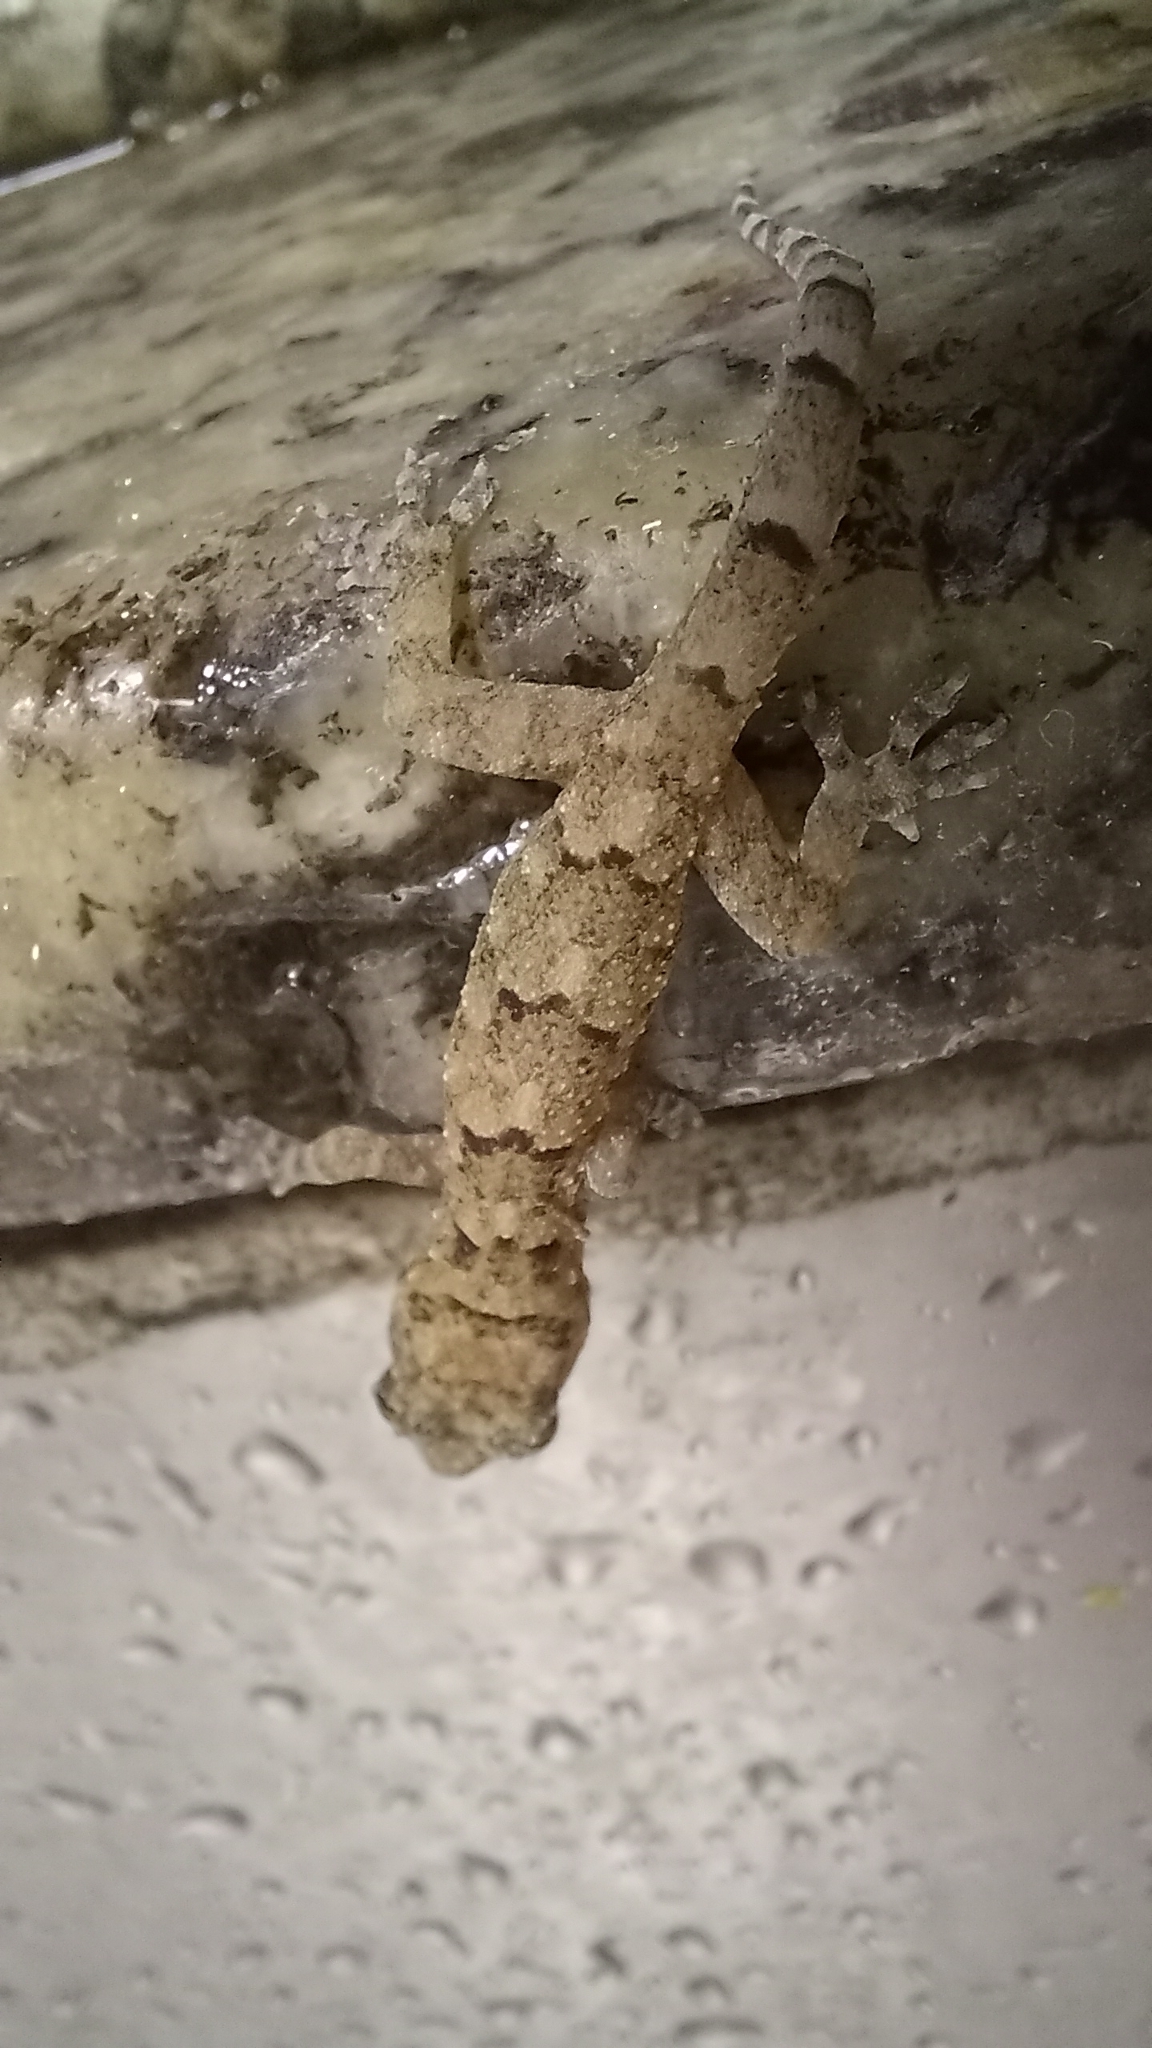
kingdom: Animalia
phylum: Chordata
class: Squamata
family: Gekkonidae
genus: Hemidactylus
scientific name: Hemidactylus mabouia
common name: House gecko
